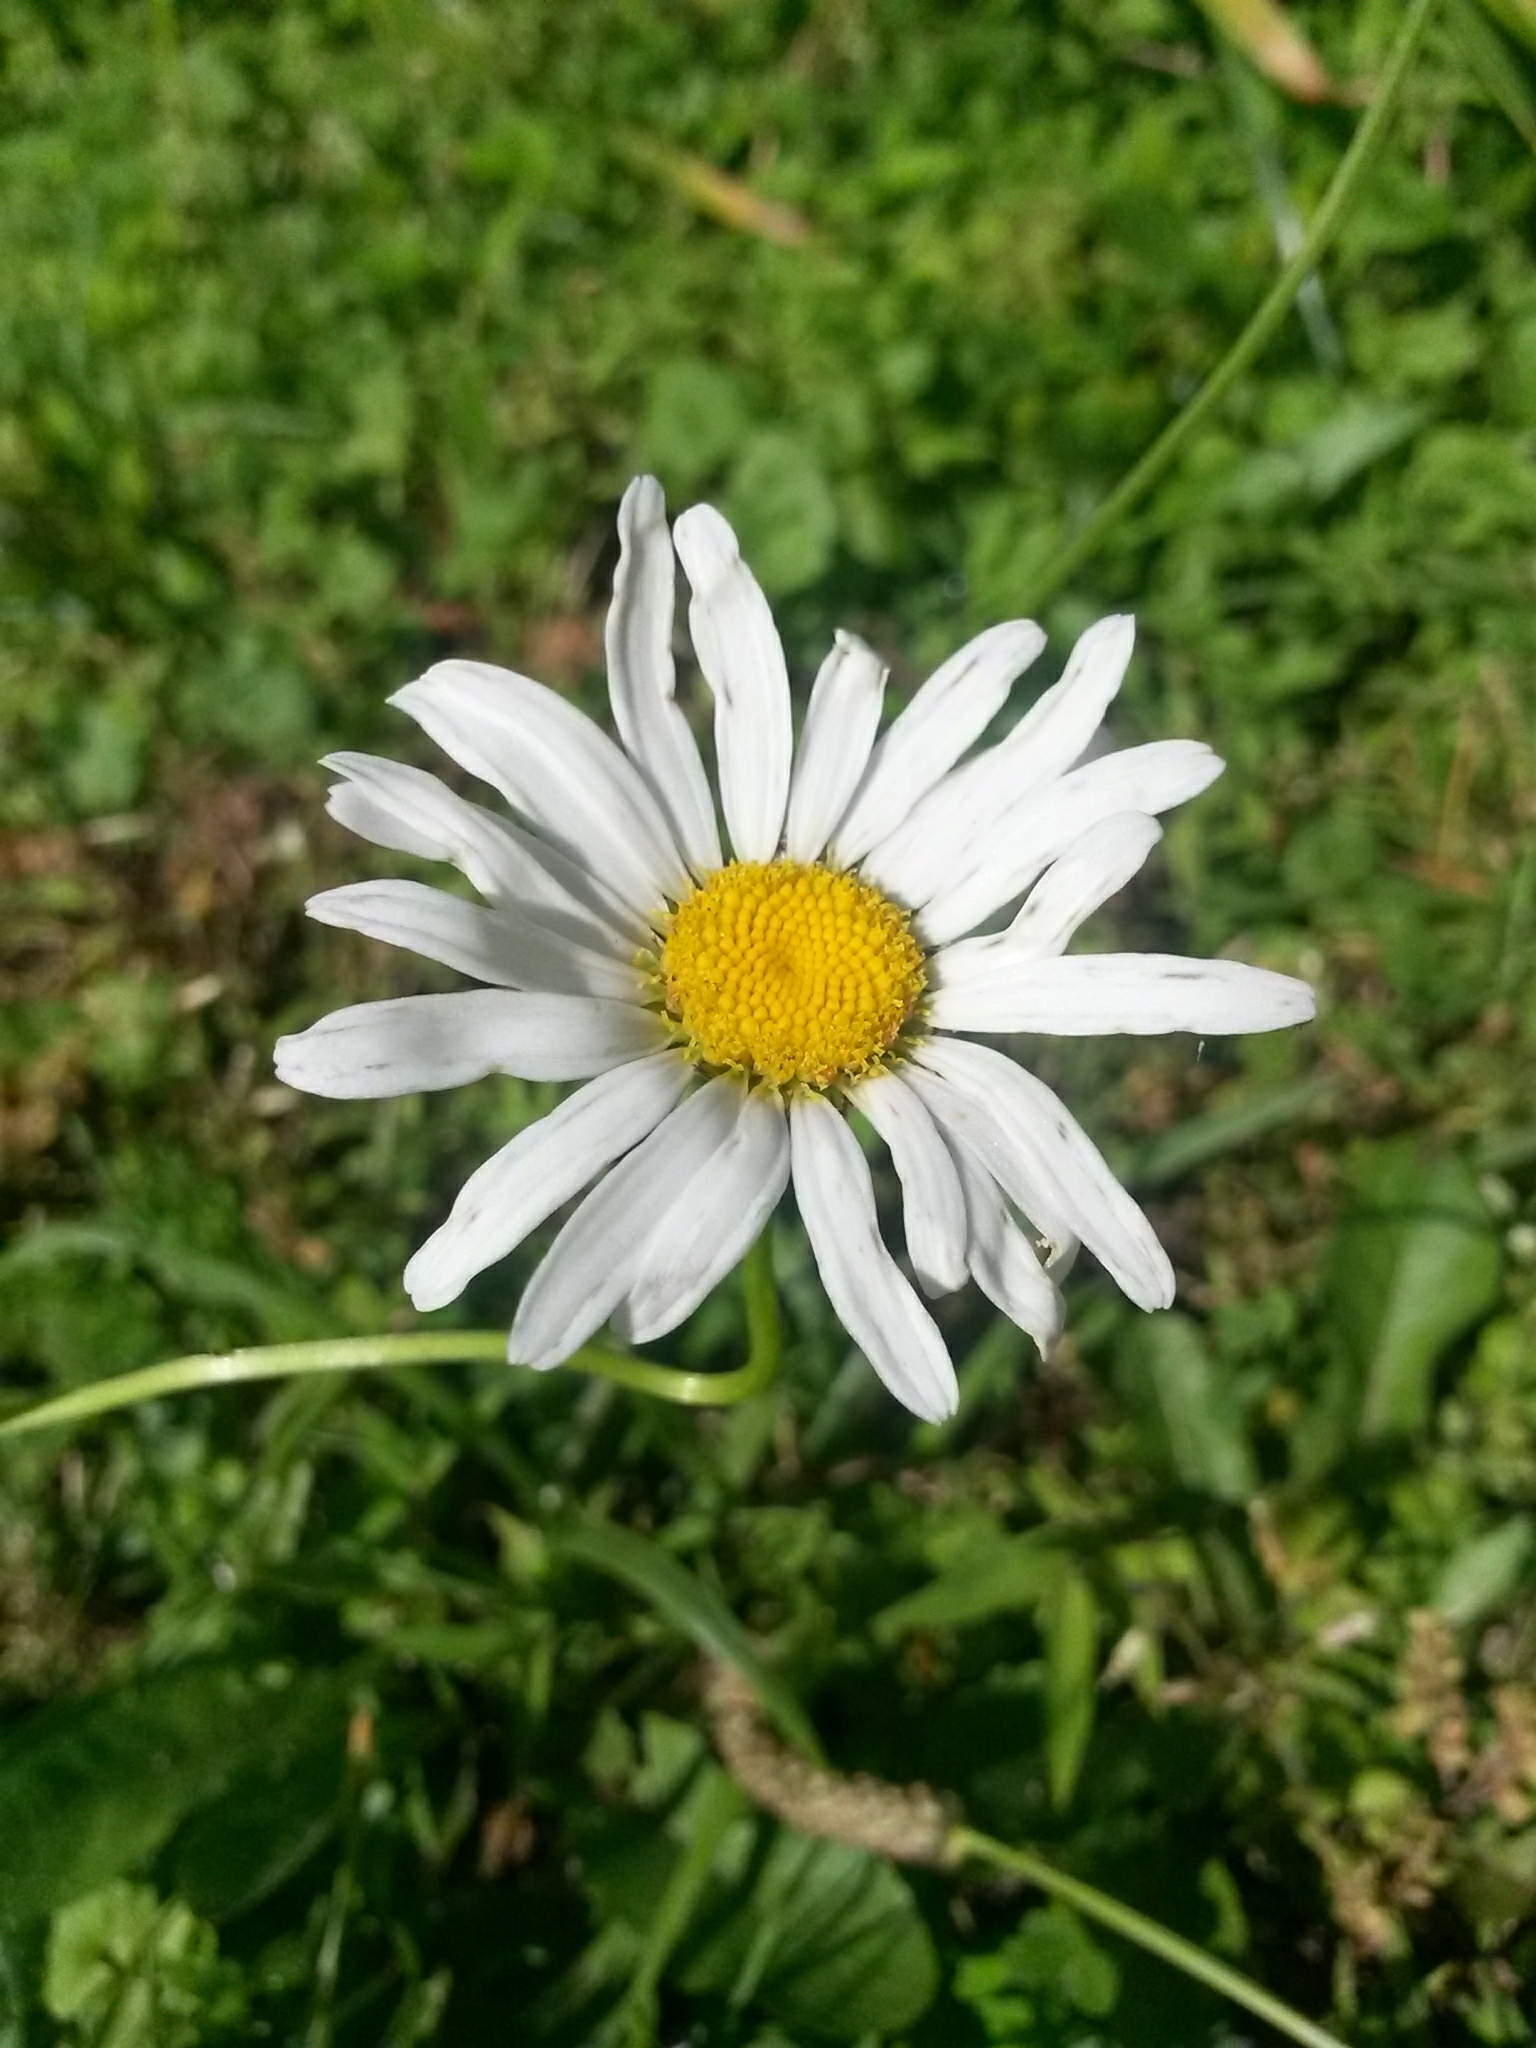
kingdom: Plantae
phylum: Tracheophyta
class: Magnoliopsida
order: Asterales
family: Asteraceae
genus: Leucanthemum
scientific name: Leucanthemum vulgare
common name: Oxeye daisy
